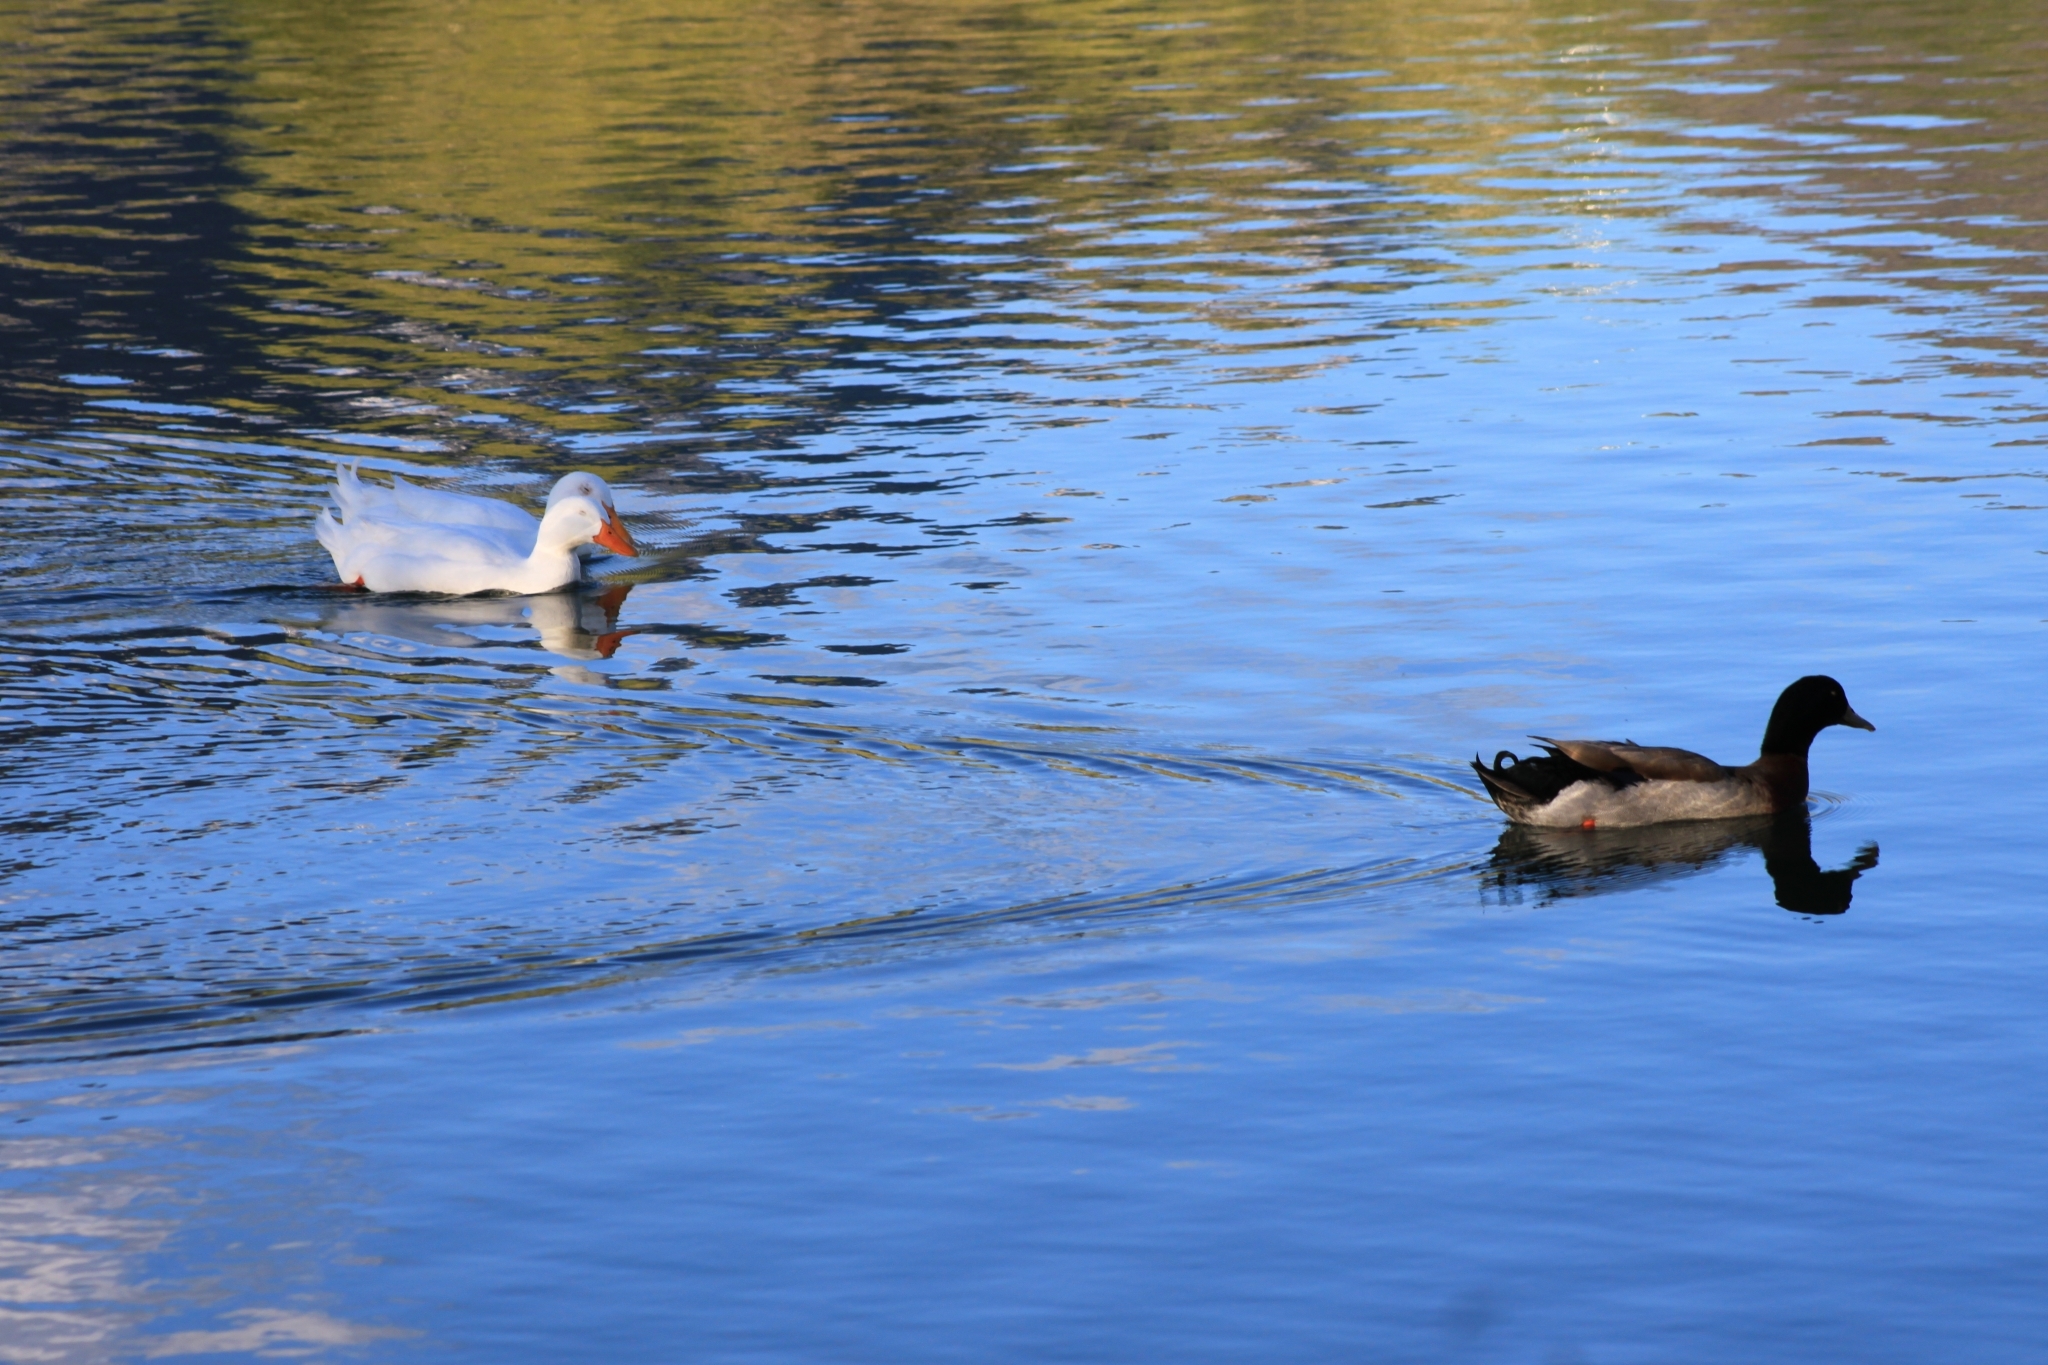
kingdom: Animalia
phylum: Chordata
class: Aves
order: Anseriformes
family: Anatidae
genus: Anas
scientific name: Anas platyrhynchos
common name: Mallard
